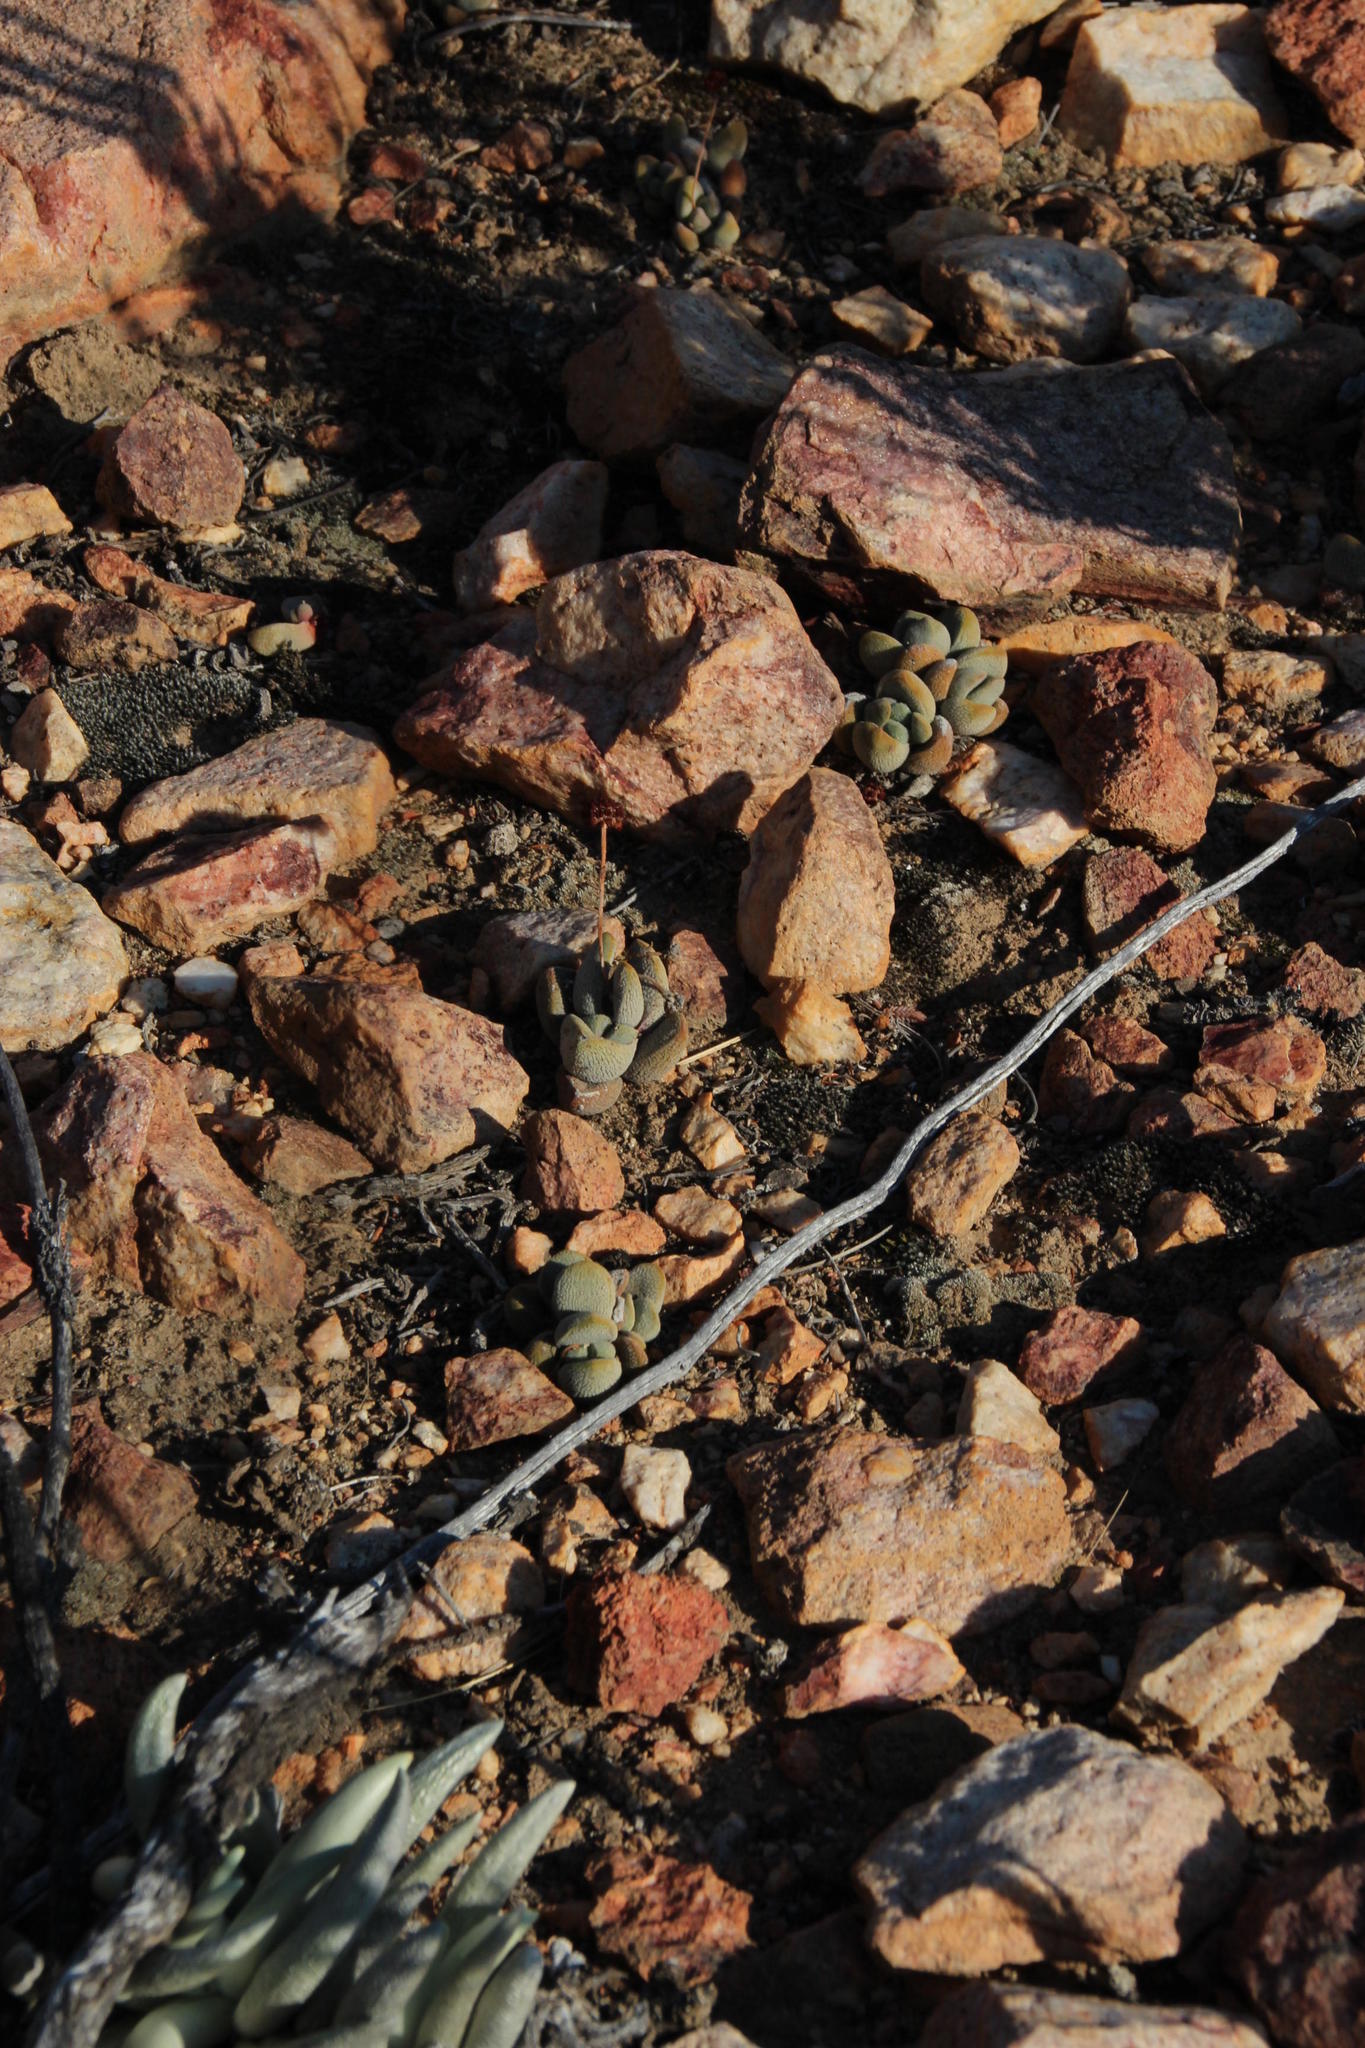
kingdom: Plantae
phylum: Tracheophyta
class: Magnoliopsida
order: Saxifragales
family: Crassulaceae
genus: Crassula
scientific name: Crassula tecta
